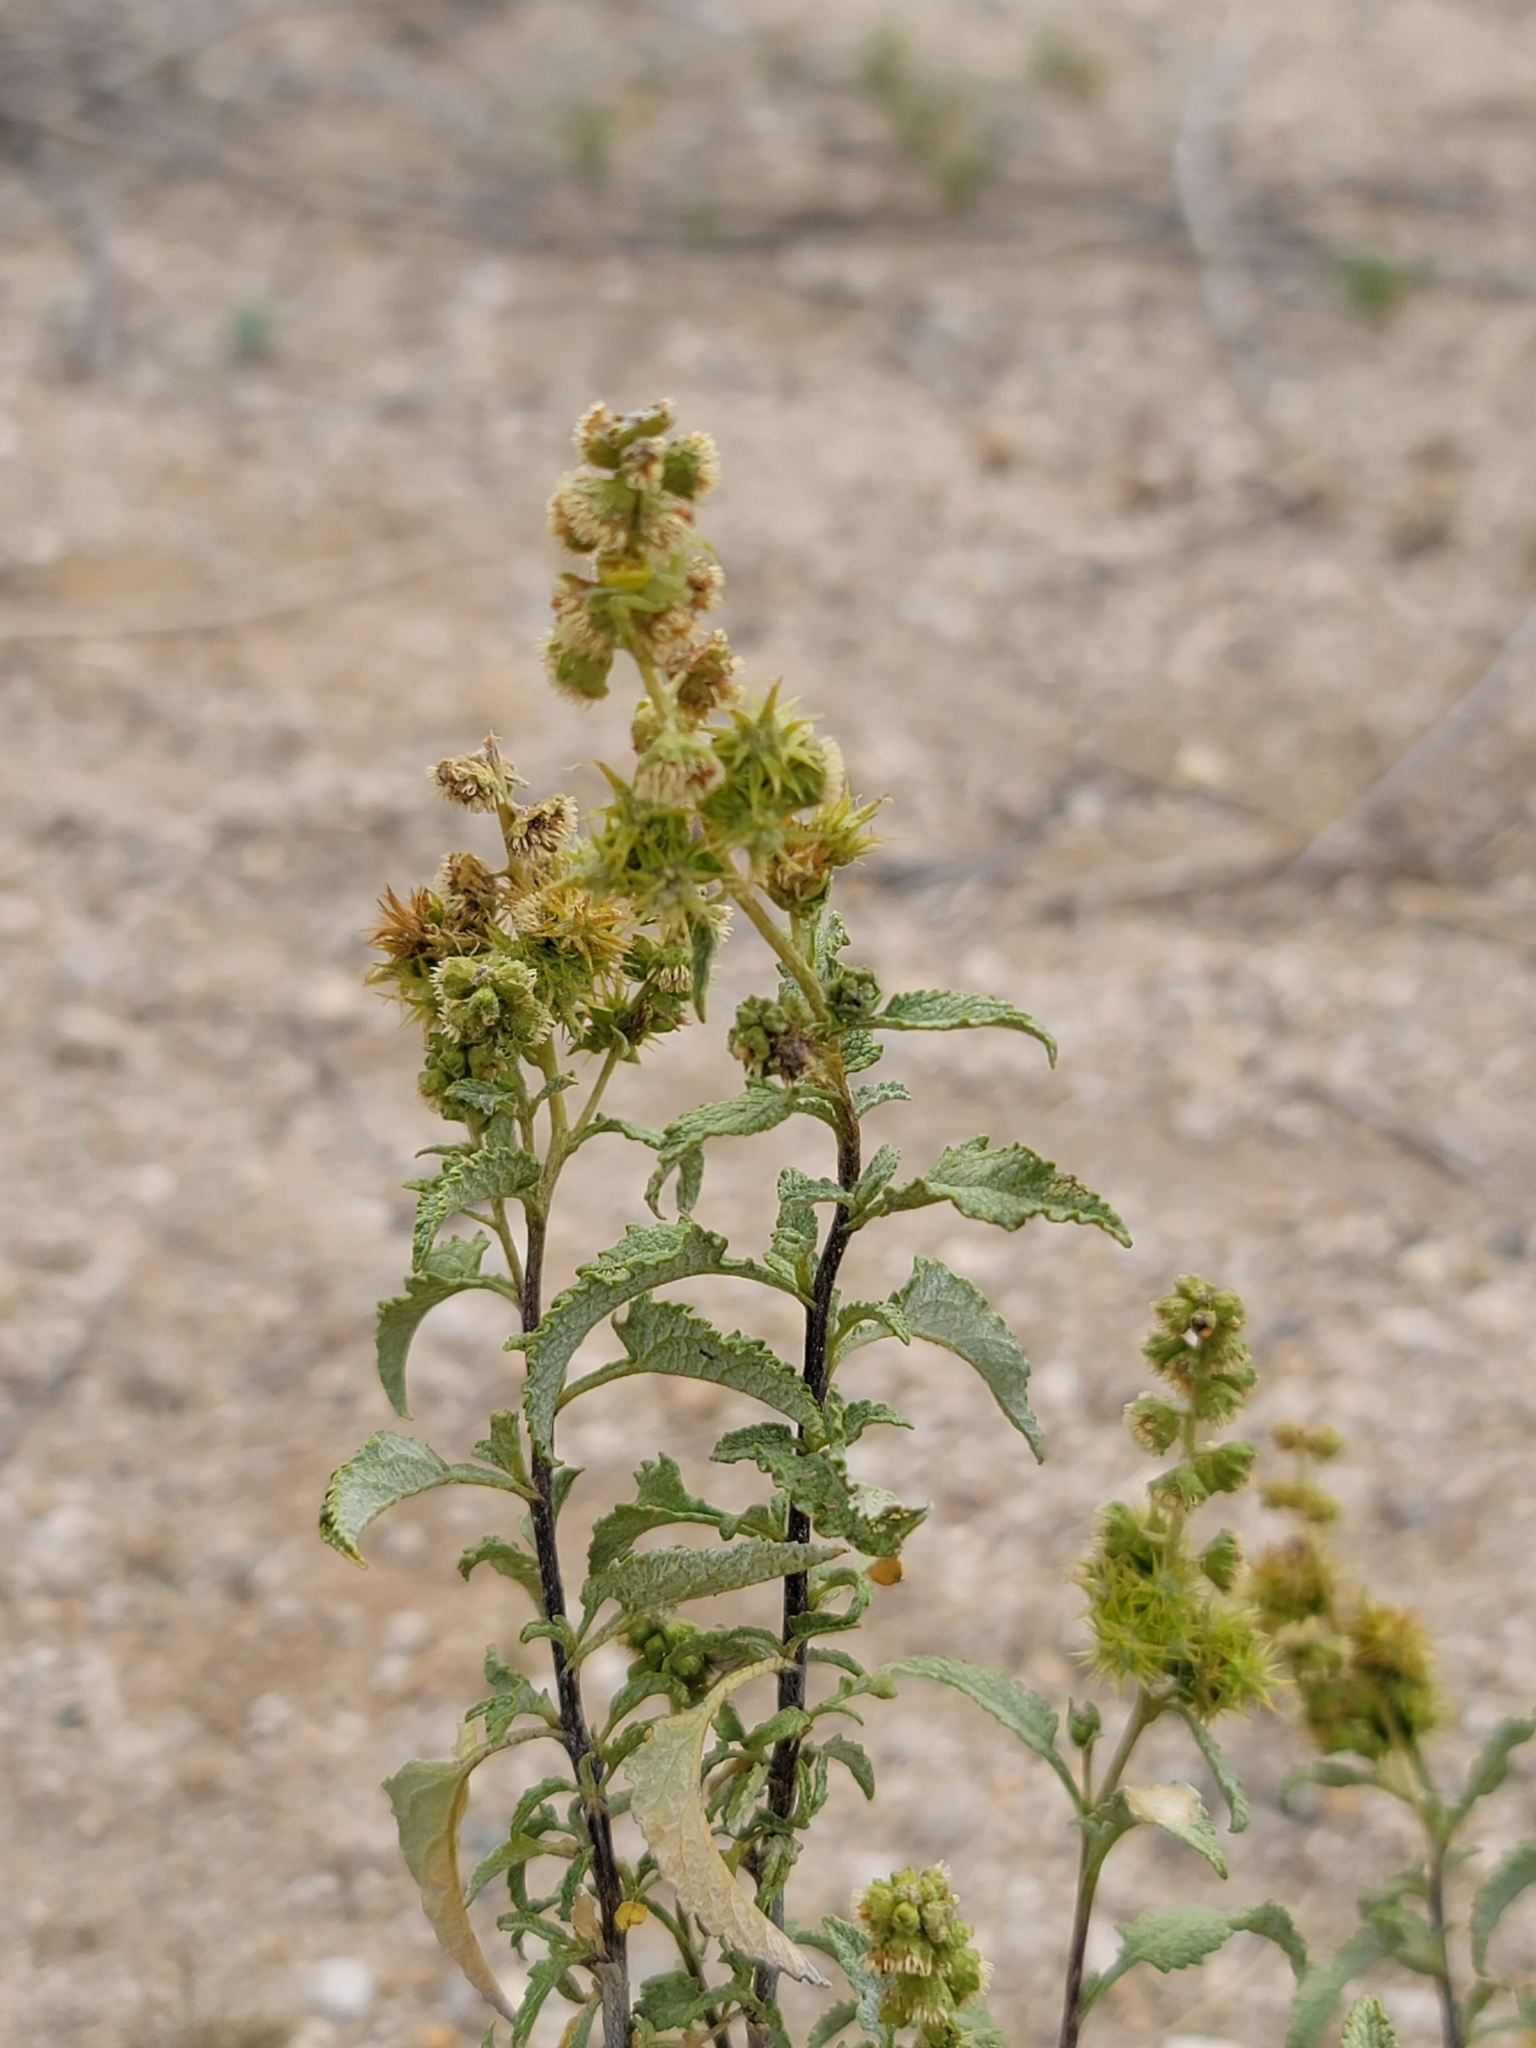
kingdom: Plantae
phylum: Tracheophyta
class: Magnoliopsida
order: Asterales
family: Asteraceae
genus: Ambrosia
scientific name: Ambrosia deltoidea
